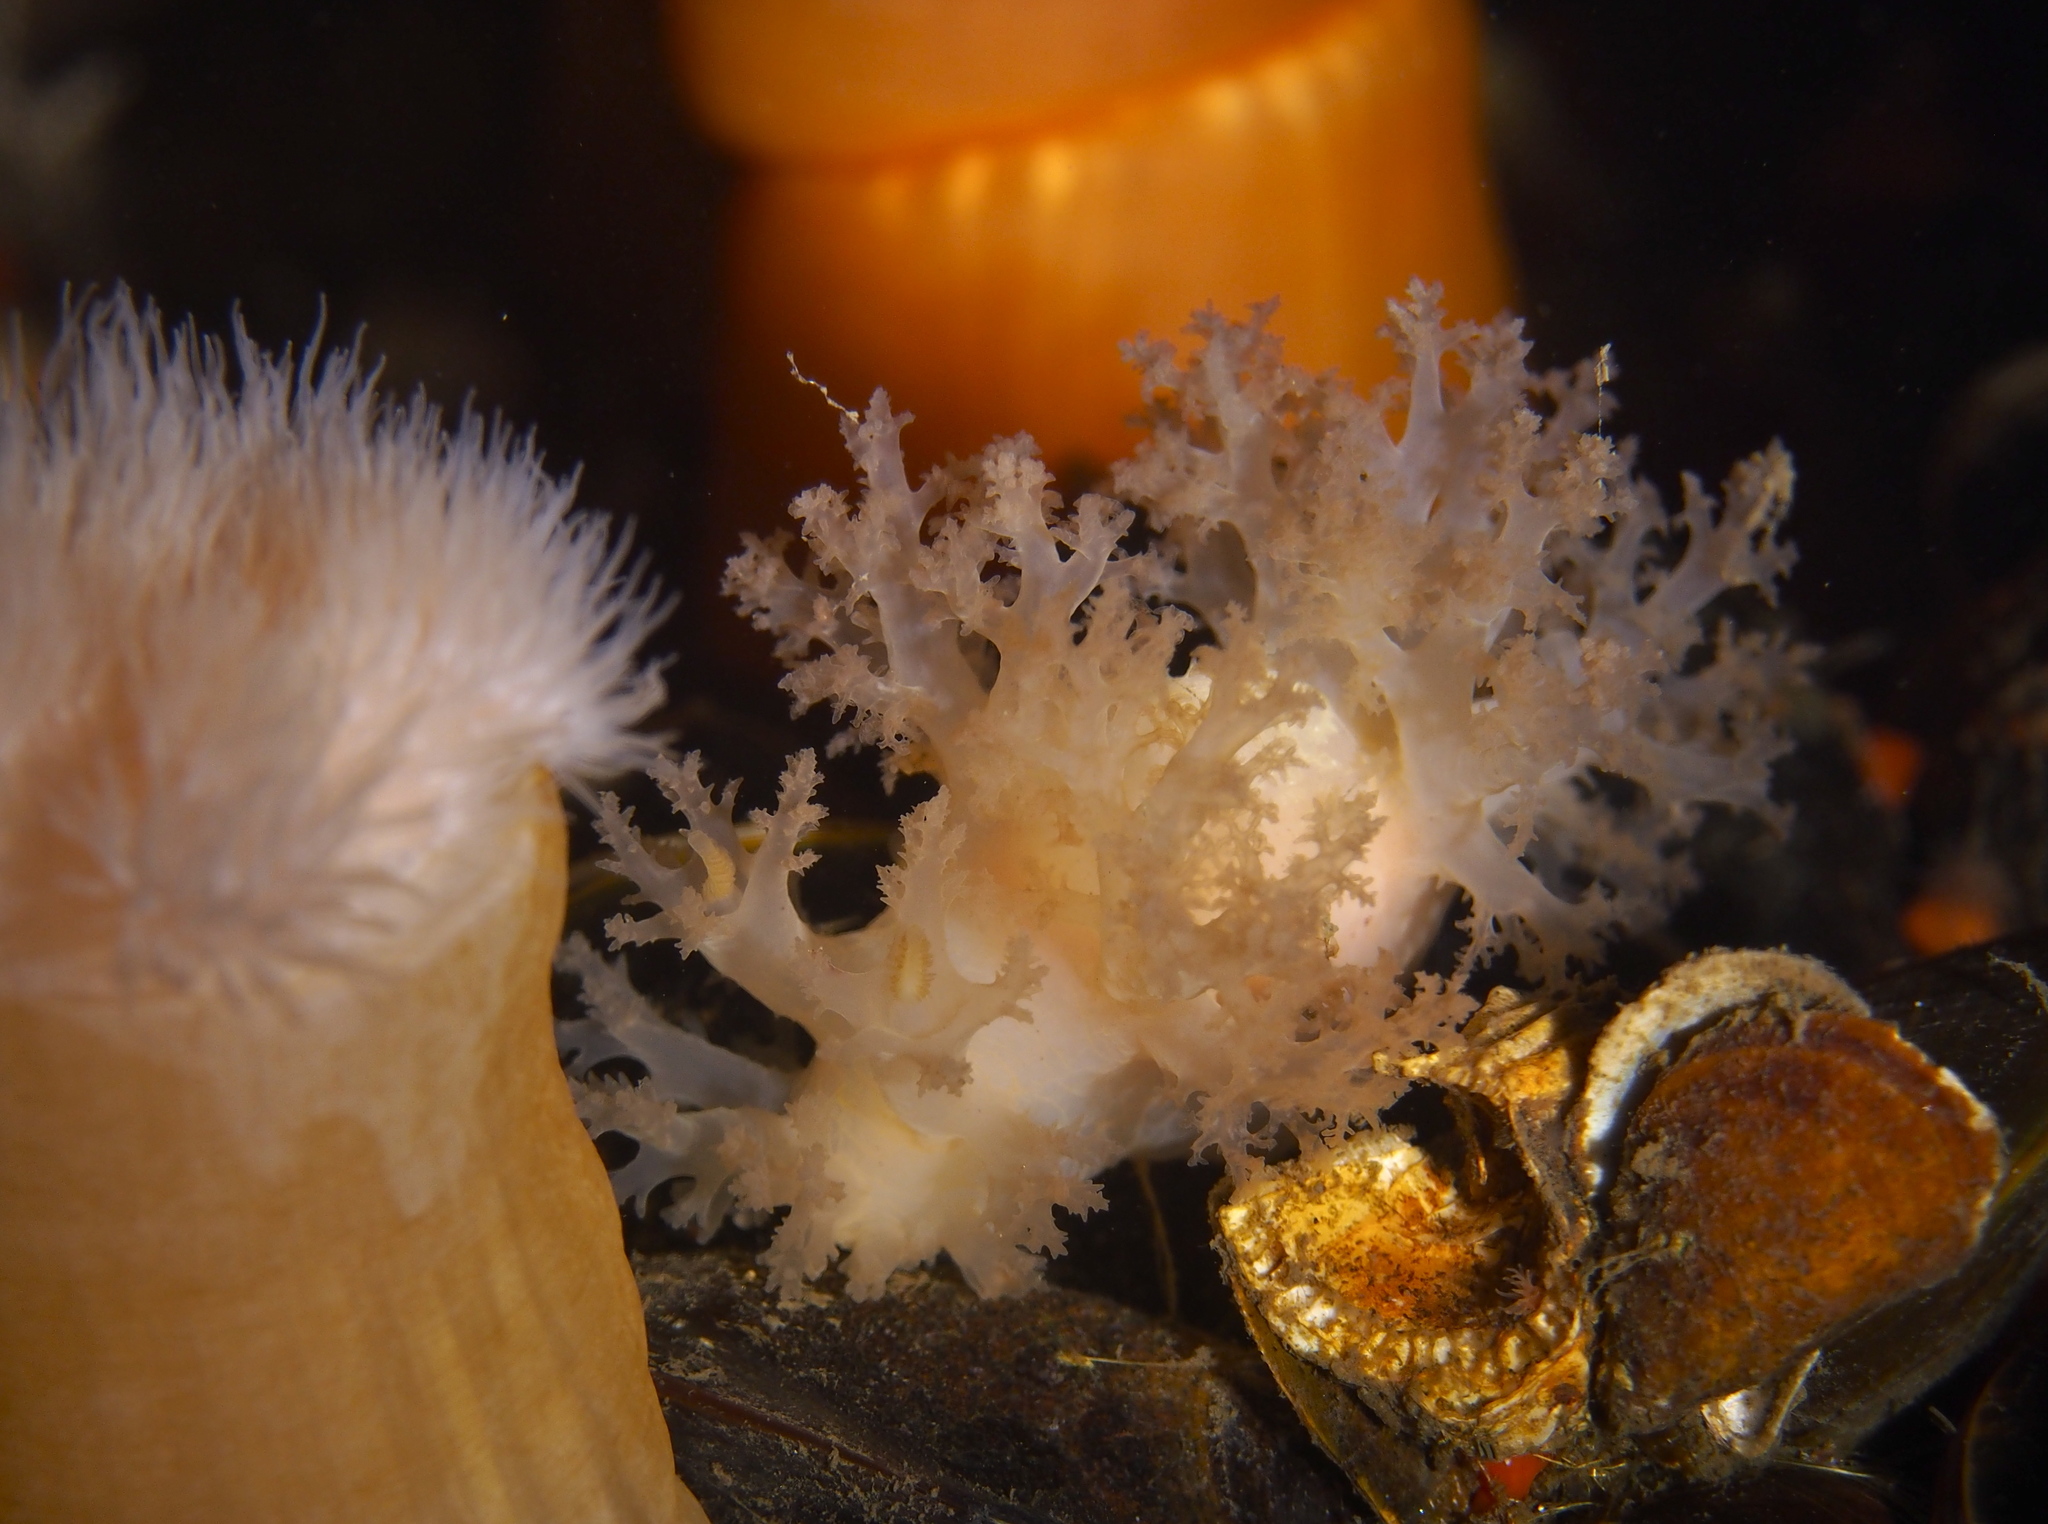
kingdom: Animalia
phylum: Mollusca
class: Gastropoda
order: Nudibranchia
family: Dendronotidae
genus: Dendronotus
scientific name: Dendronotus lacteus
